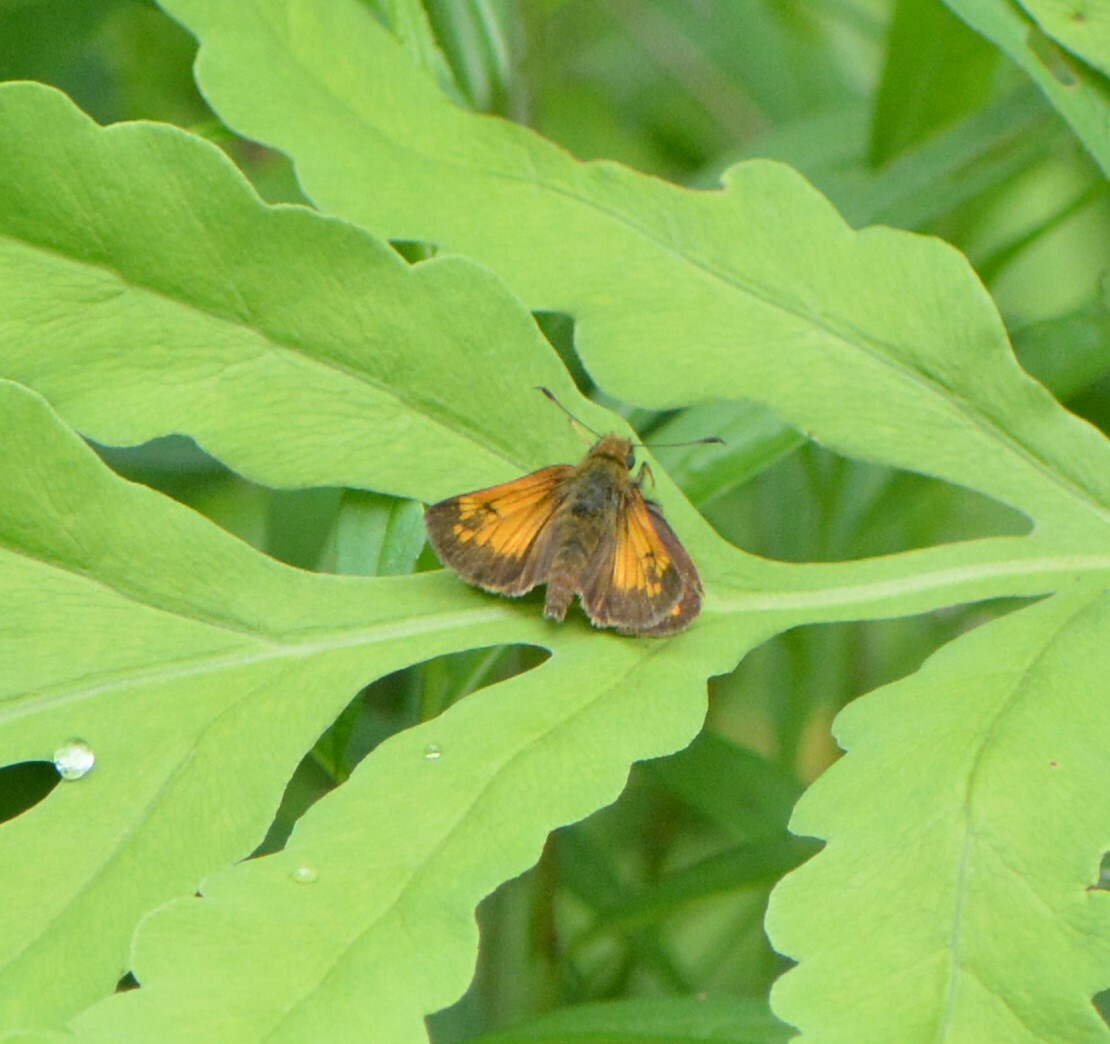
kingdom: Animalia
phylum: Arthropoda
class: Insecta
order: Lepidoptera
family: Hesperiidae
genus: Lon
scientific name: Lon hobomok
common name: Hobomok skipper
